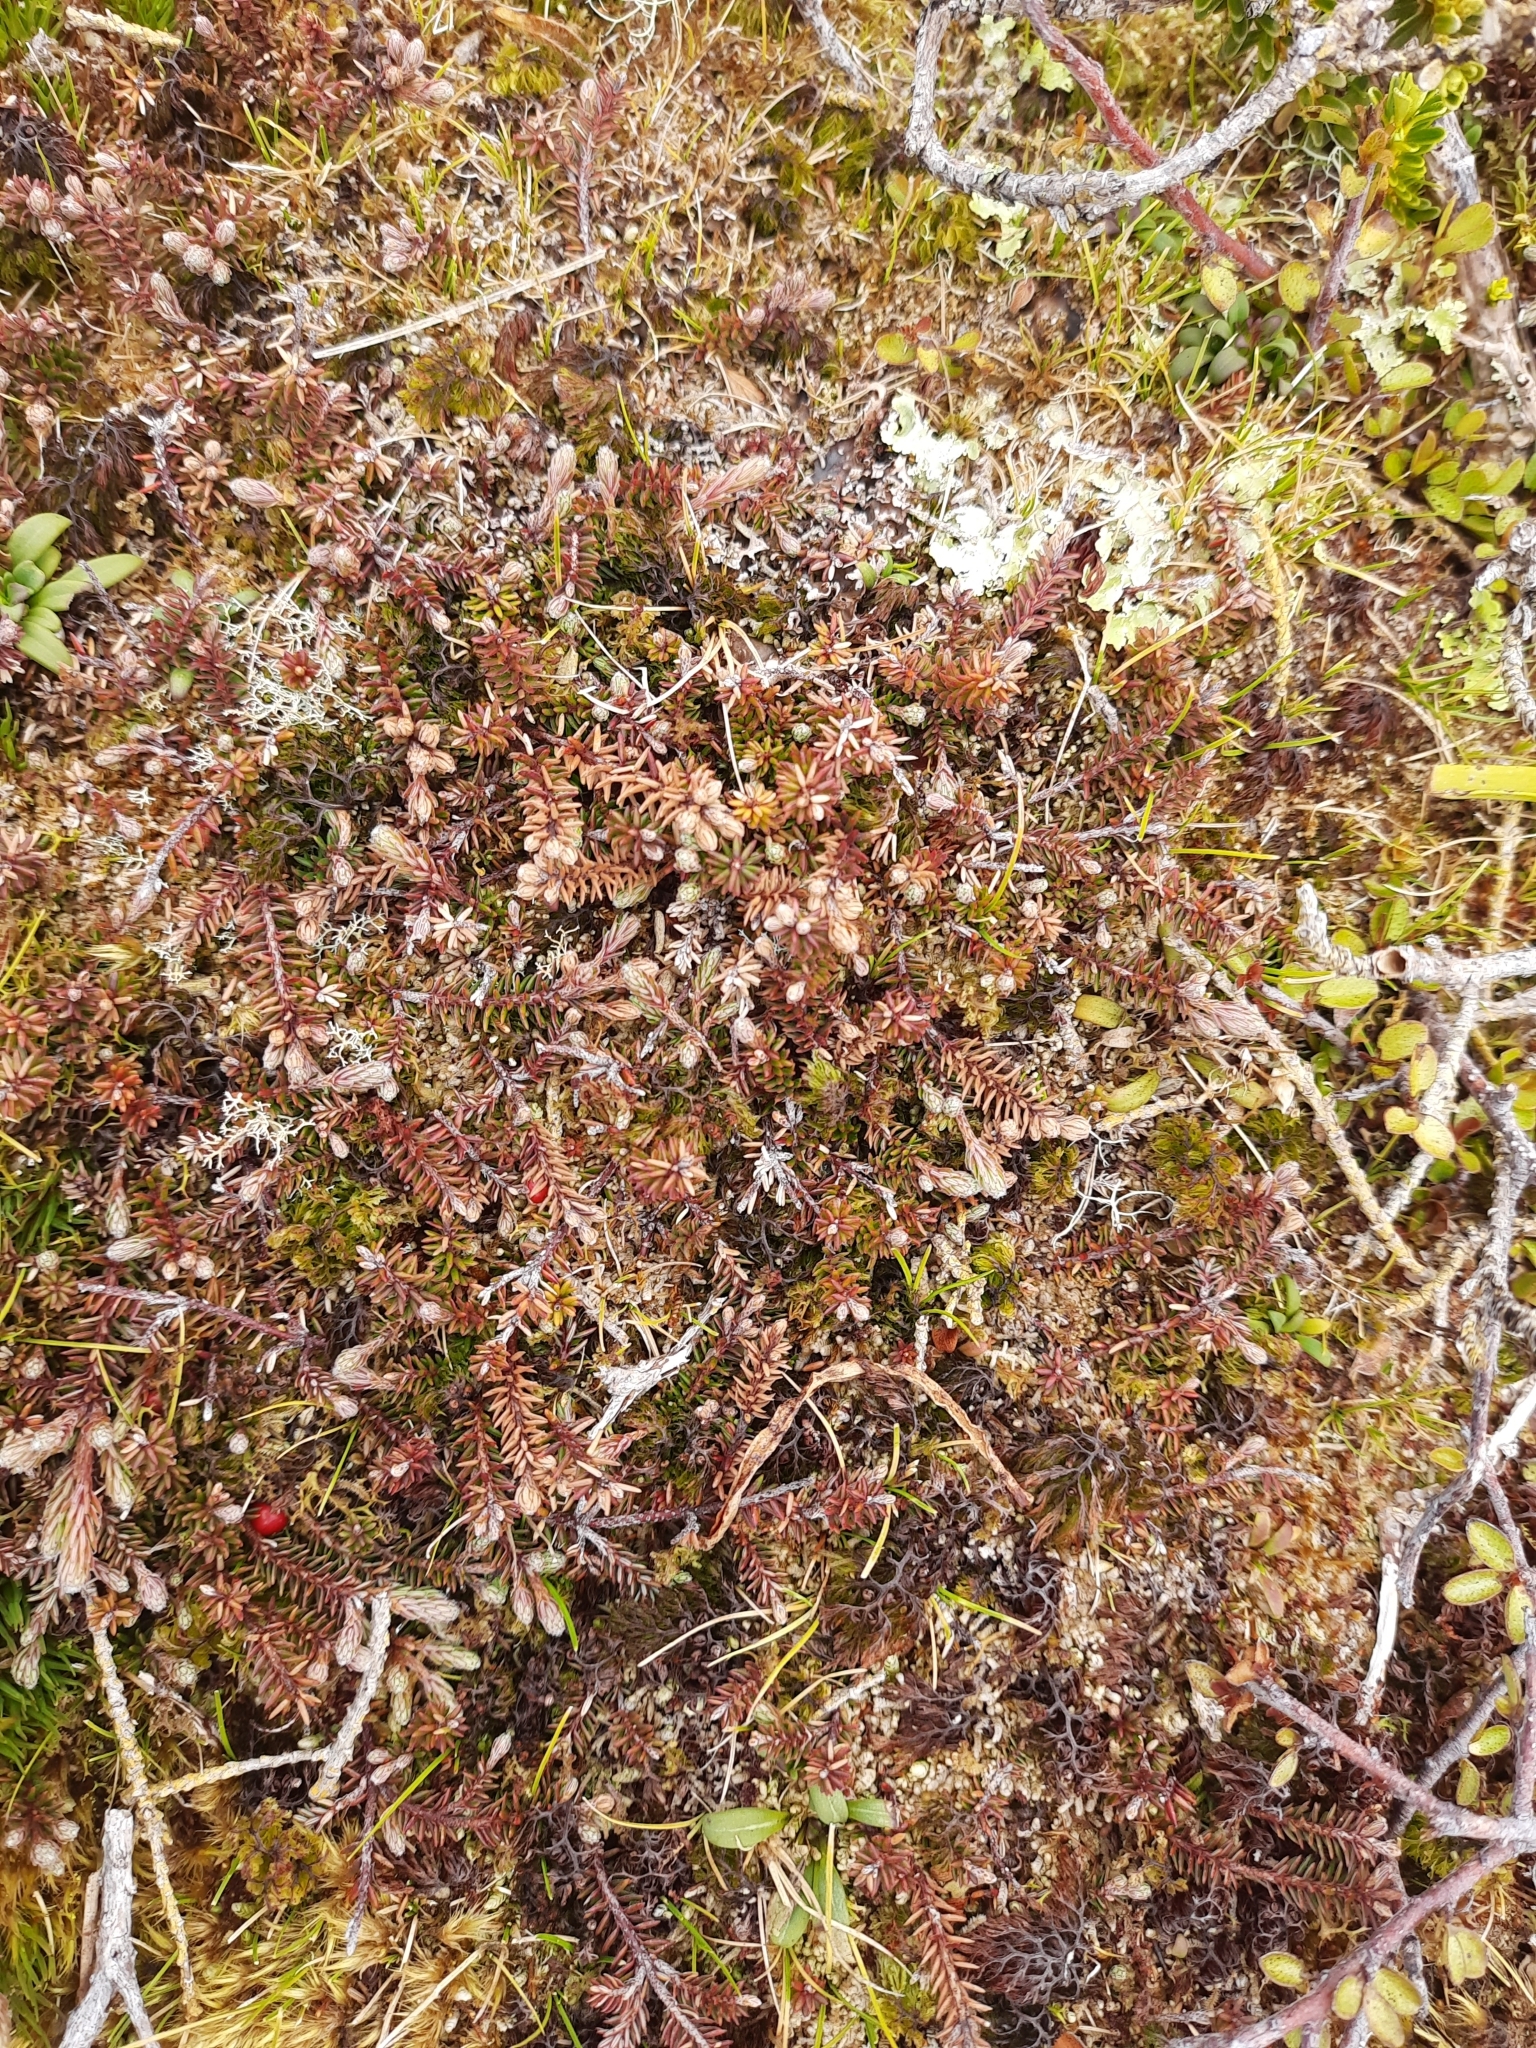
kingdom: Plantae
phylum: Tracheophyta
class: Magnoliopsida
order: Ericales
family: Ericaceae
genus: Androstoma
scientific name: Androstoma empetrifolia
